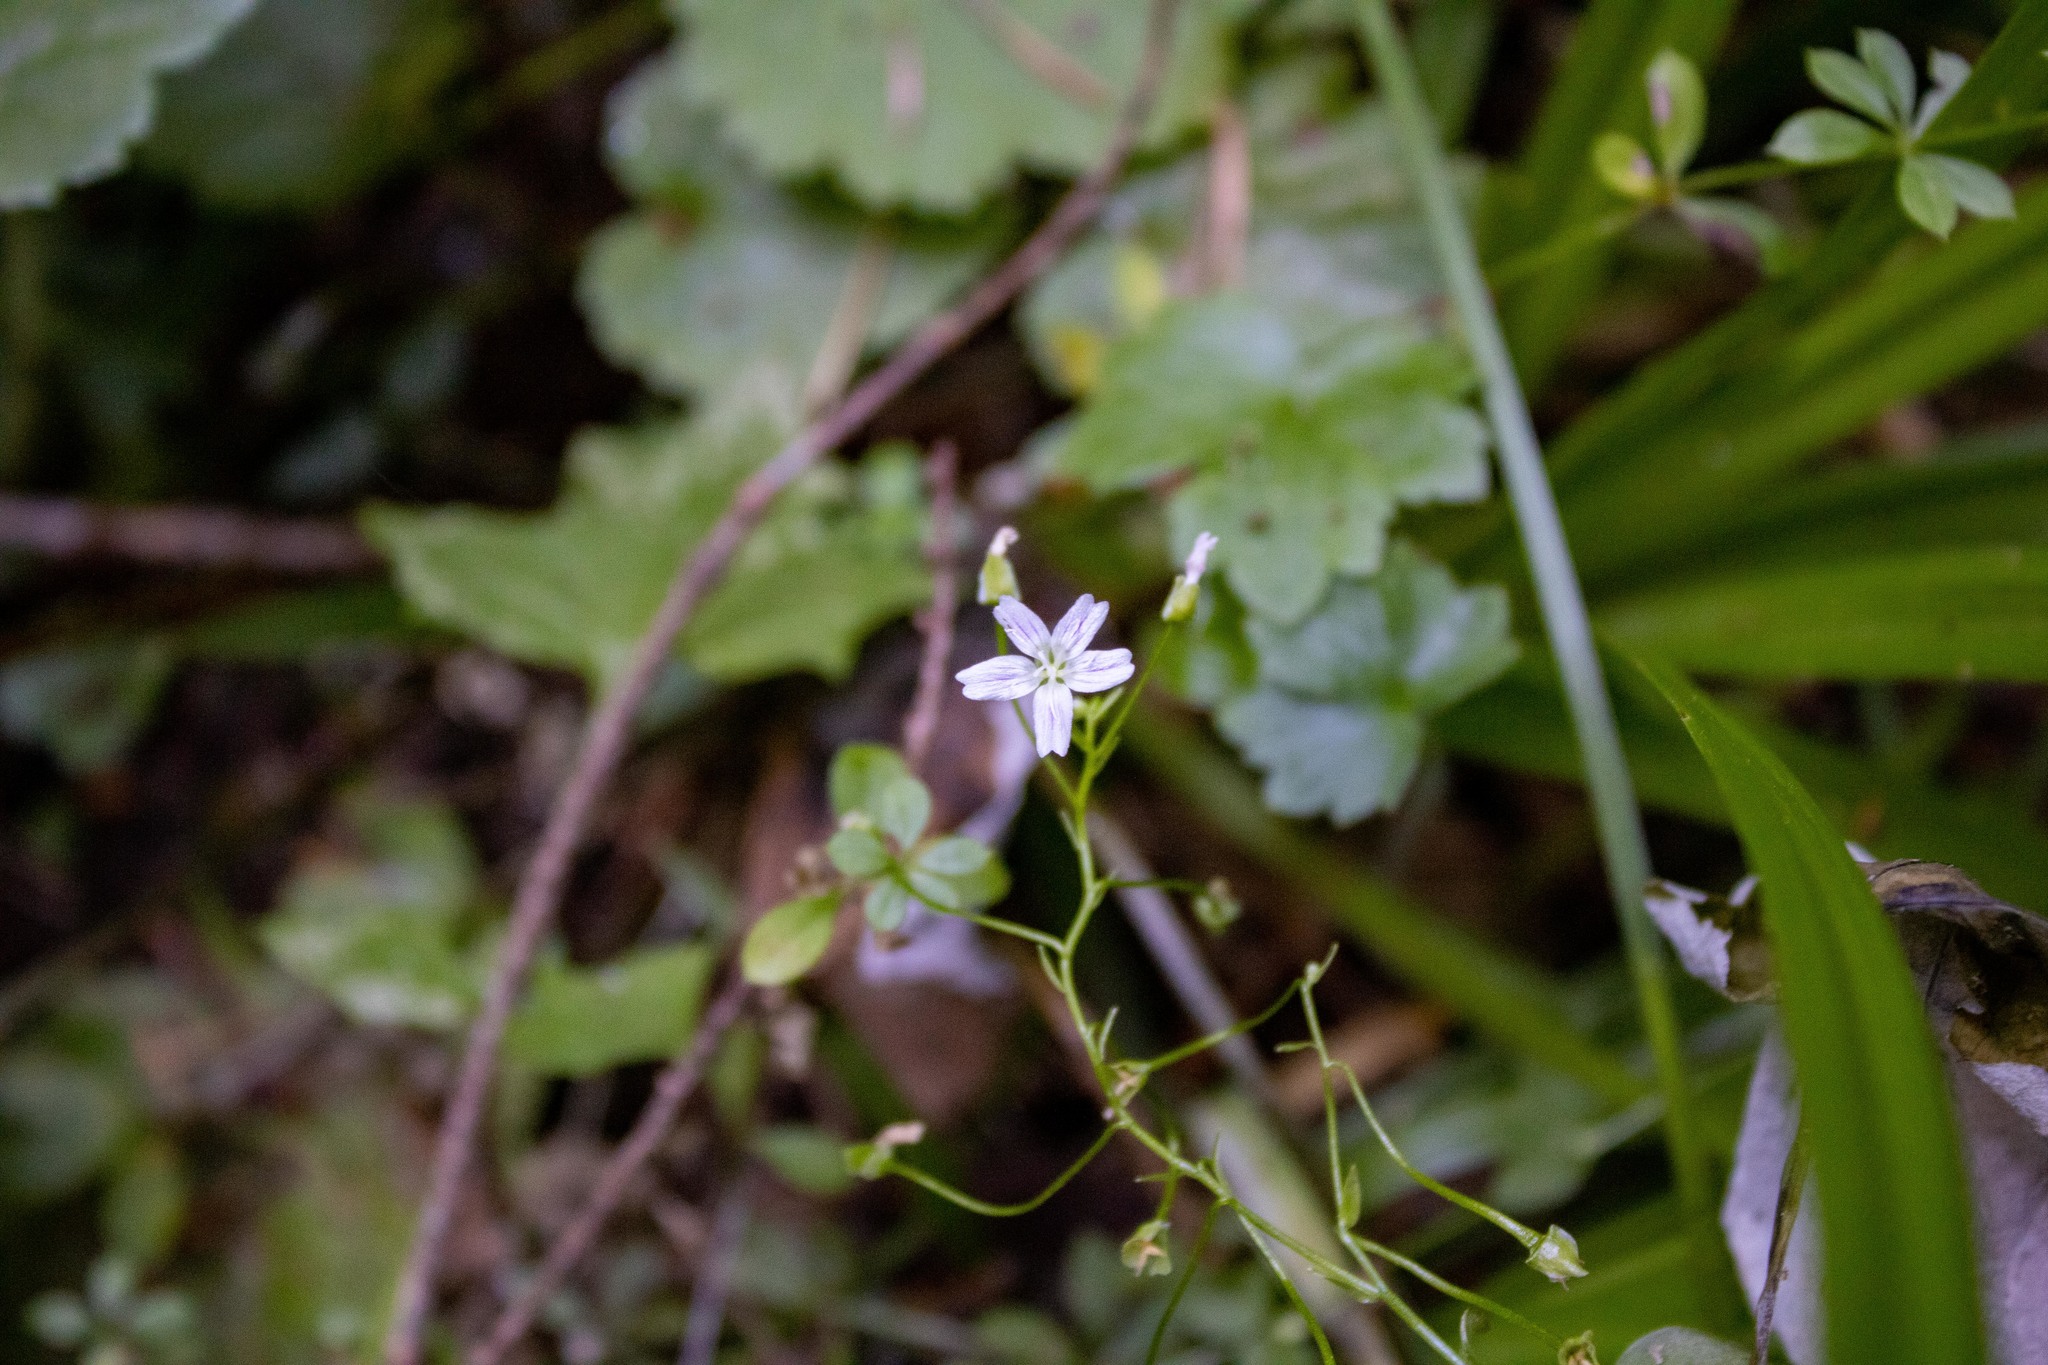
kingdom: Plantae
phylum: Tracheophyta
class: Magnoliopsida
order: Caryophyllales
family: Montiaceae
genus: Claytonia
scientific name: Claytonia sibirica
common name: Pink purslane
